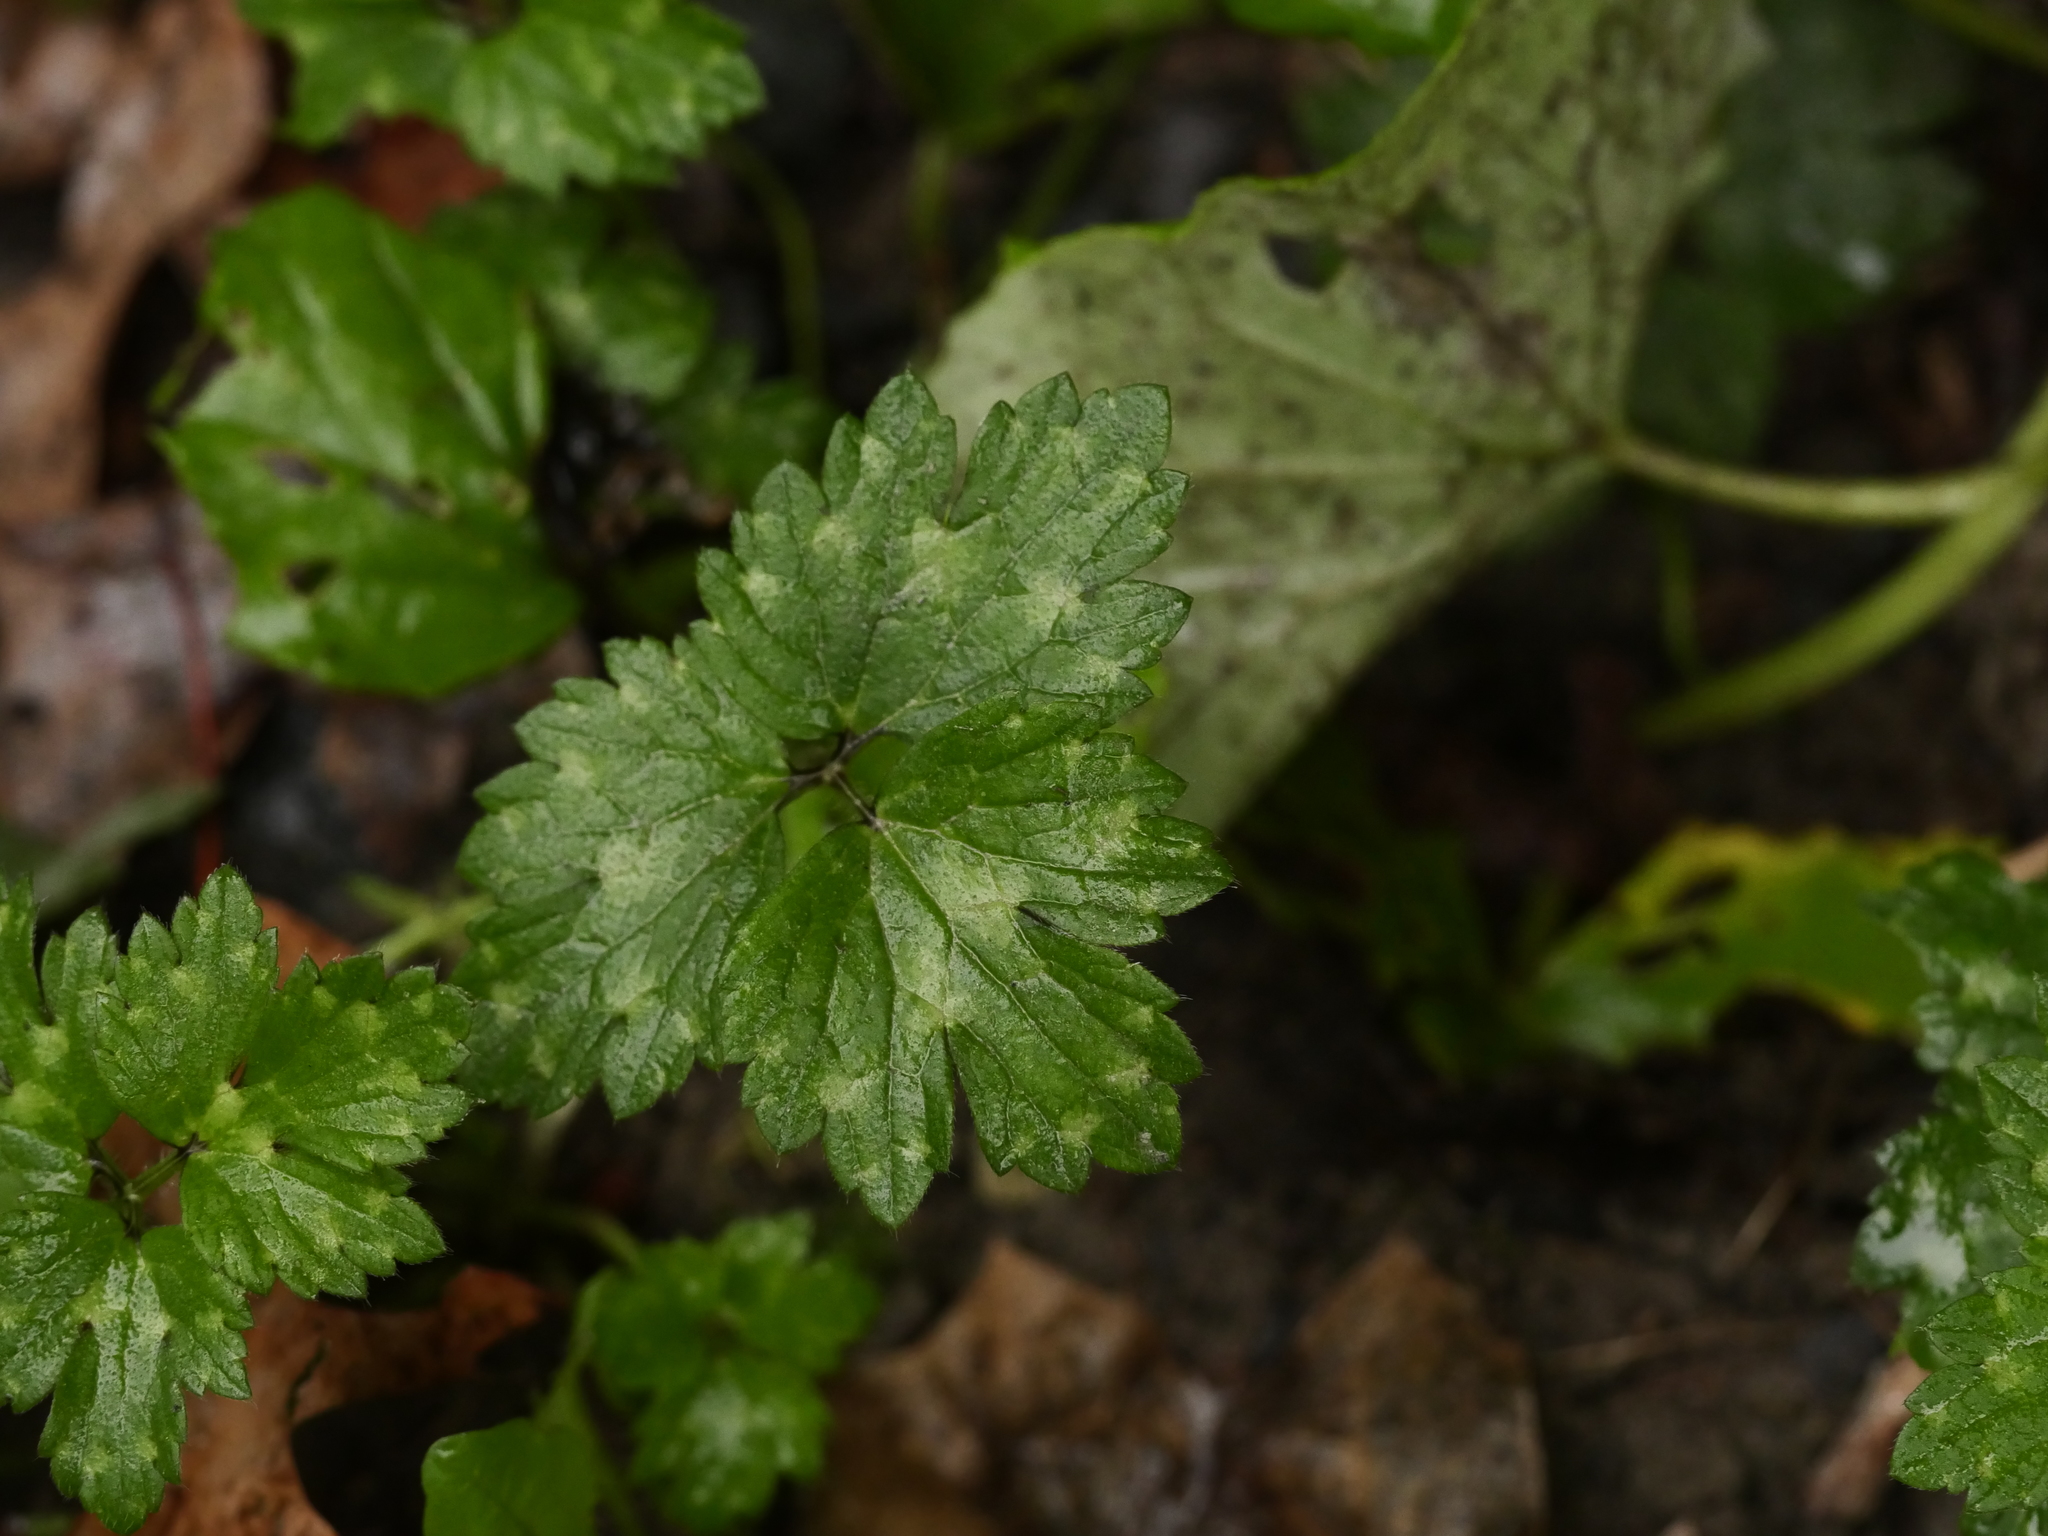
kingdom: Plantae
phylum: Tracheophyta
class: Magnoliopsida
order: Ranunculales
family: Ranunculaceae
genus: Ranunculus
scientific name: Ranunculus repens
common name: Creeping buttercup
